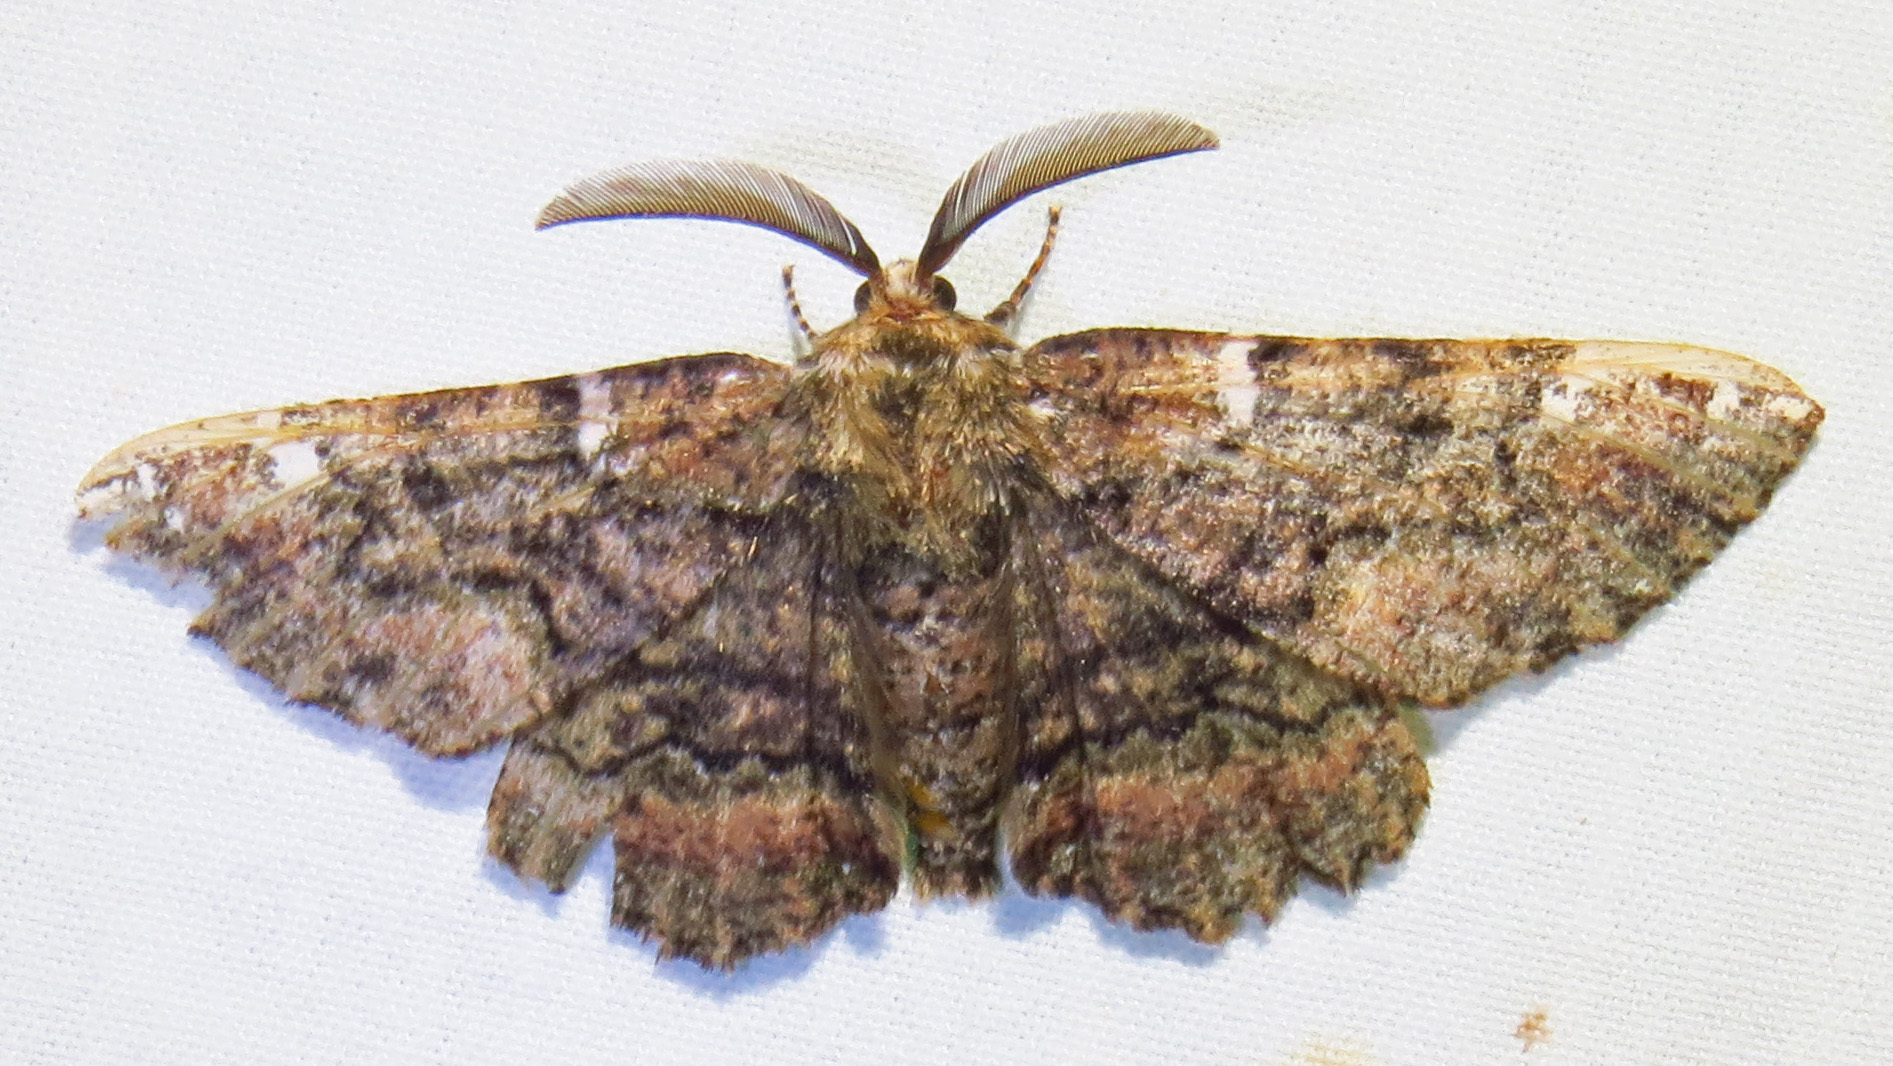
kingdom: Animalia
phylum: Arthropoda
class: Insecta
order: Lepidoptera
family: Geometridae
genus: Phaeoura
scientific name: Phaeoura quernaria
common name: Oak beauty
